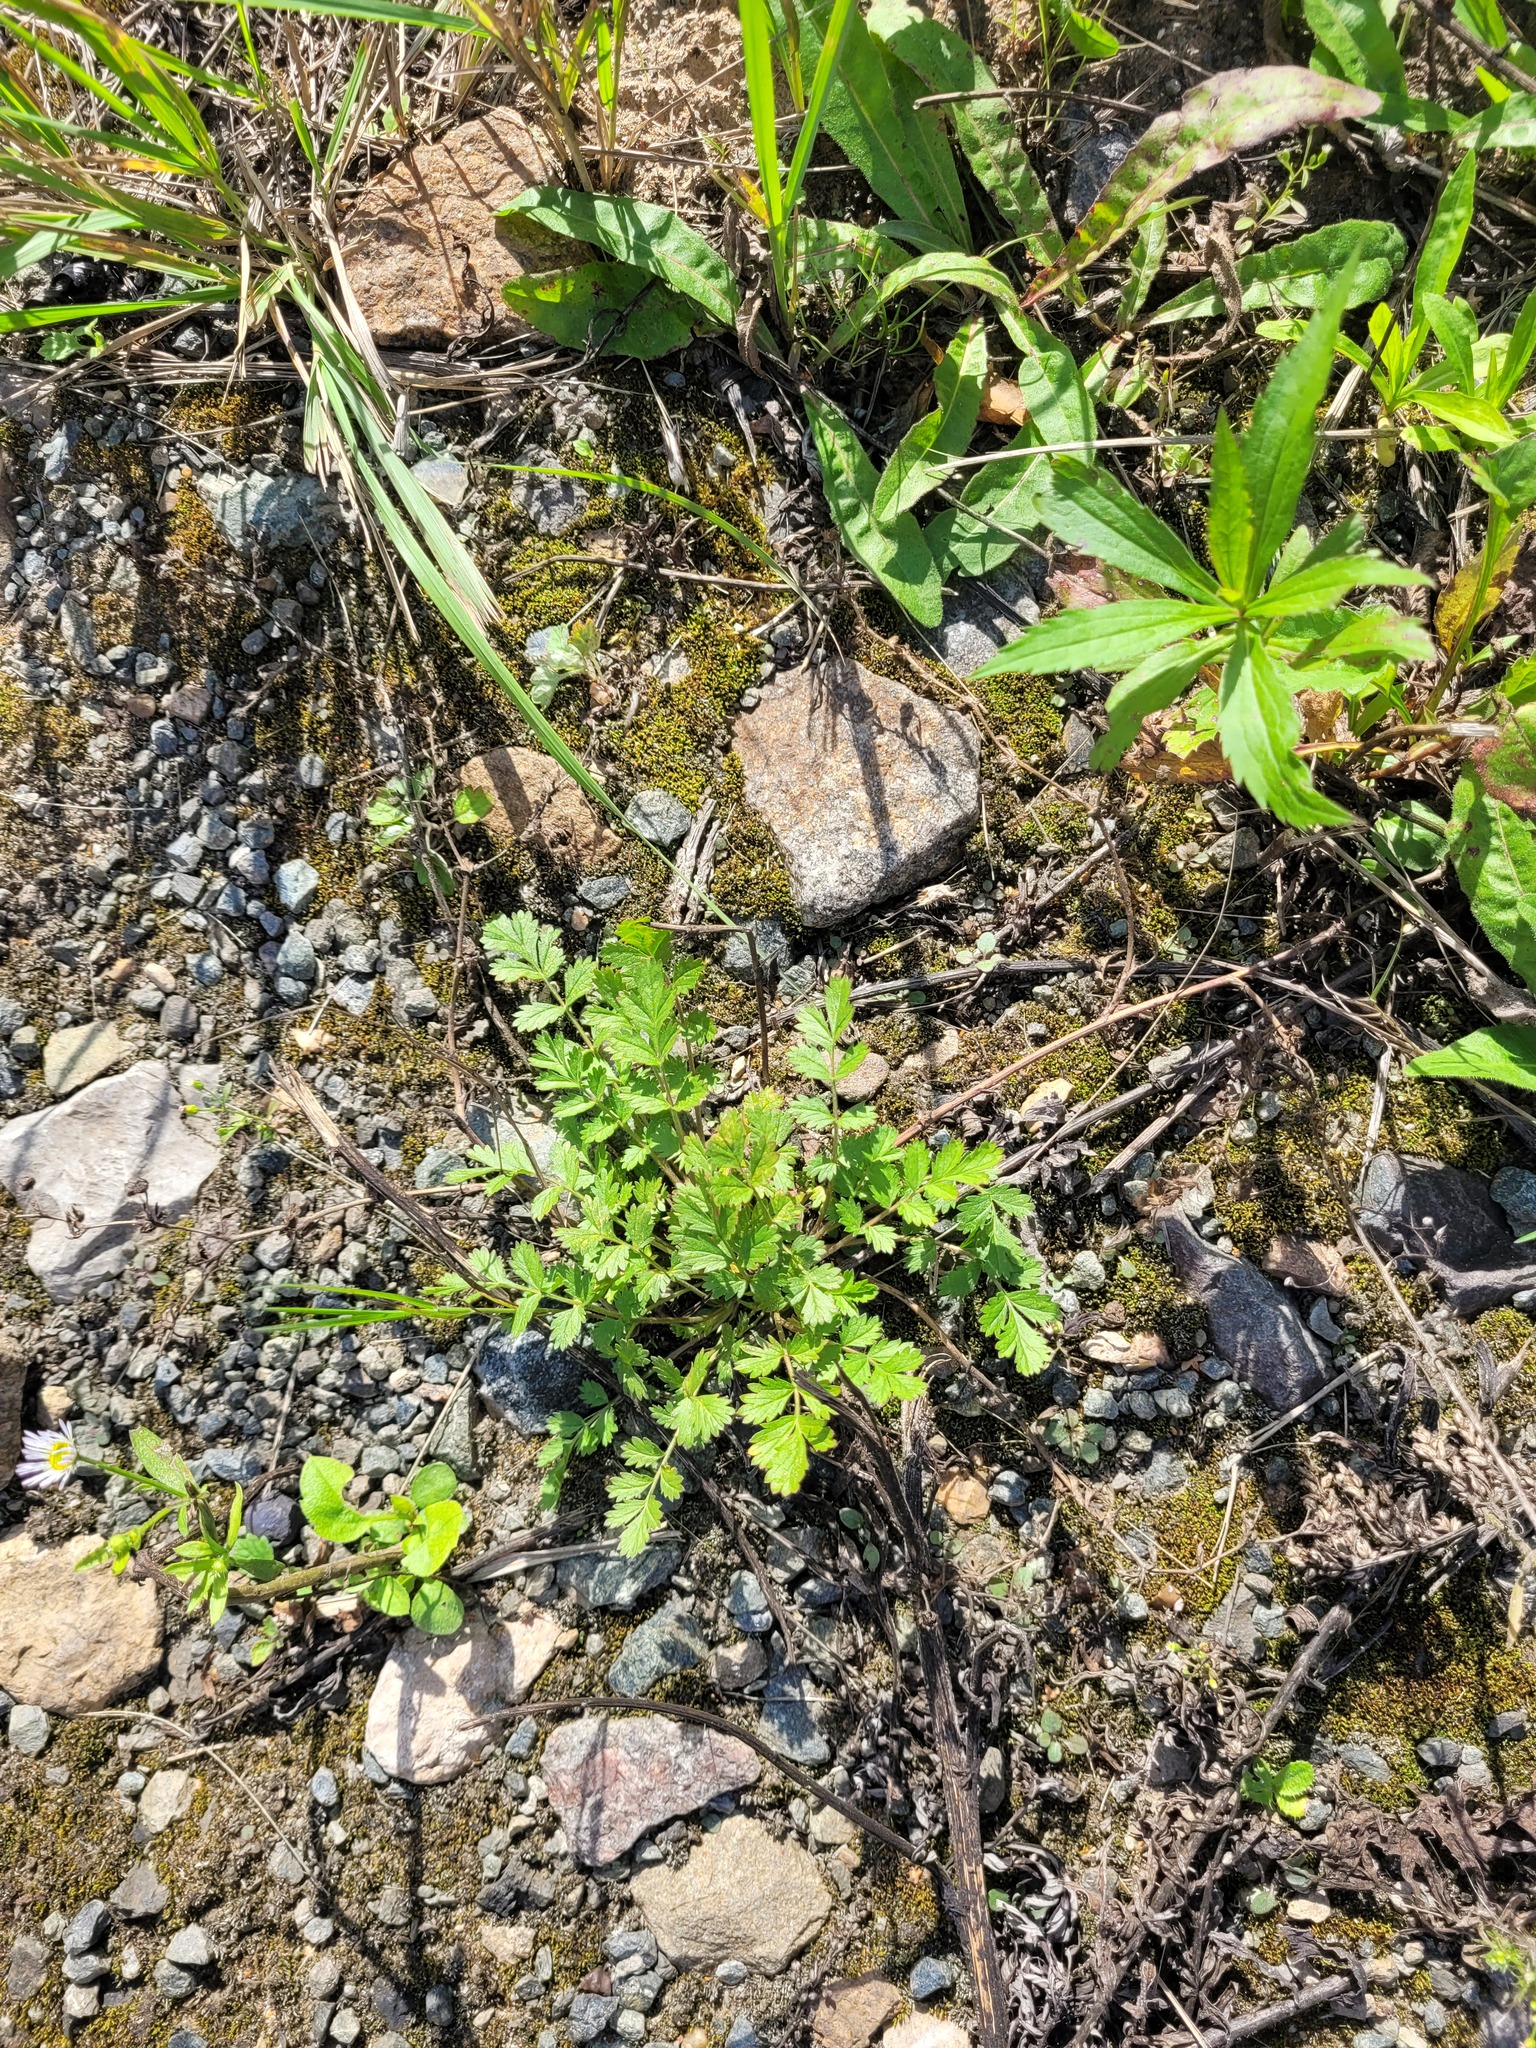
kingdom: Plantae
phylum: Tracheophyta
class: Magnoliopsida
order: Rosales
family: Rosaceae
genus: Potentilla
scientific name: Potentilla supina
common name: Prostrate cinquefoil
